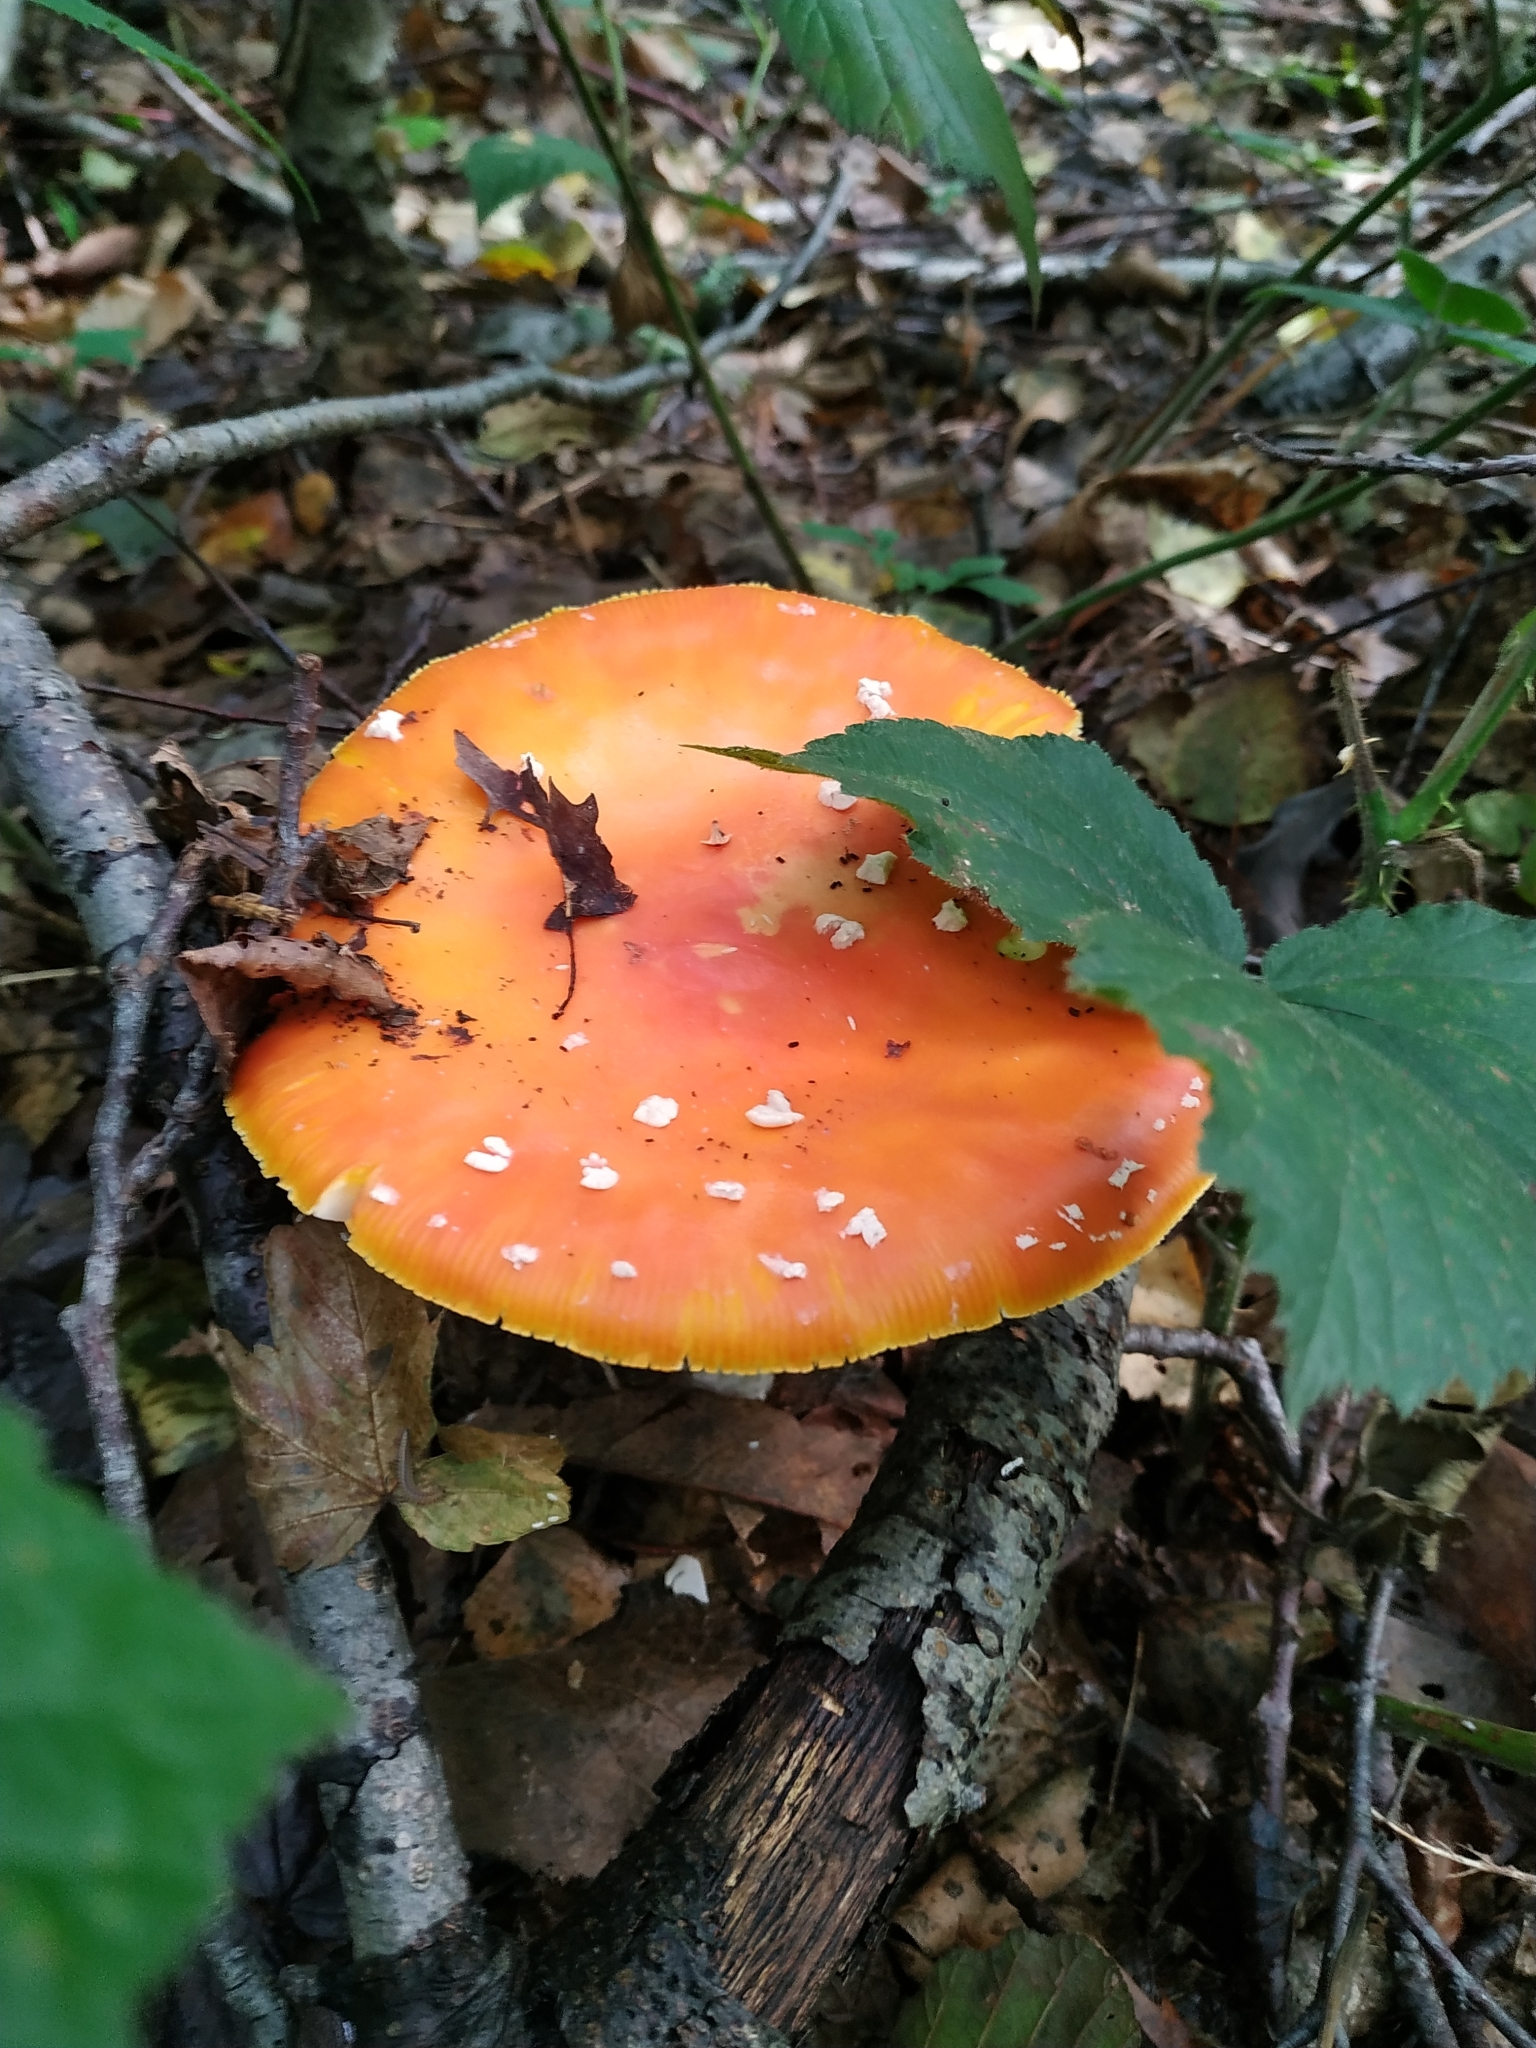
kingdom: Fungi
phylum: Basidiomycota
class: Agaricomycetes
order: Agaricales
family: Amanitaceae
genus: Amanita
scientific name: Amanita muscaria
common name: Fly agaric
